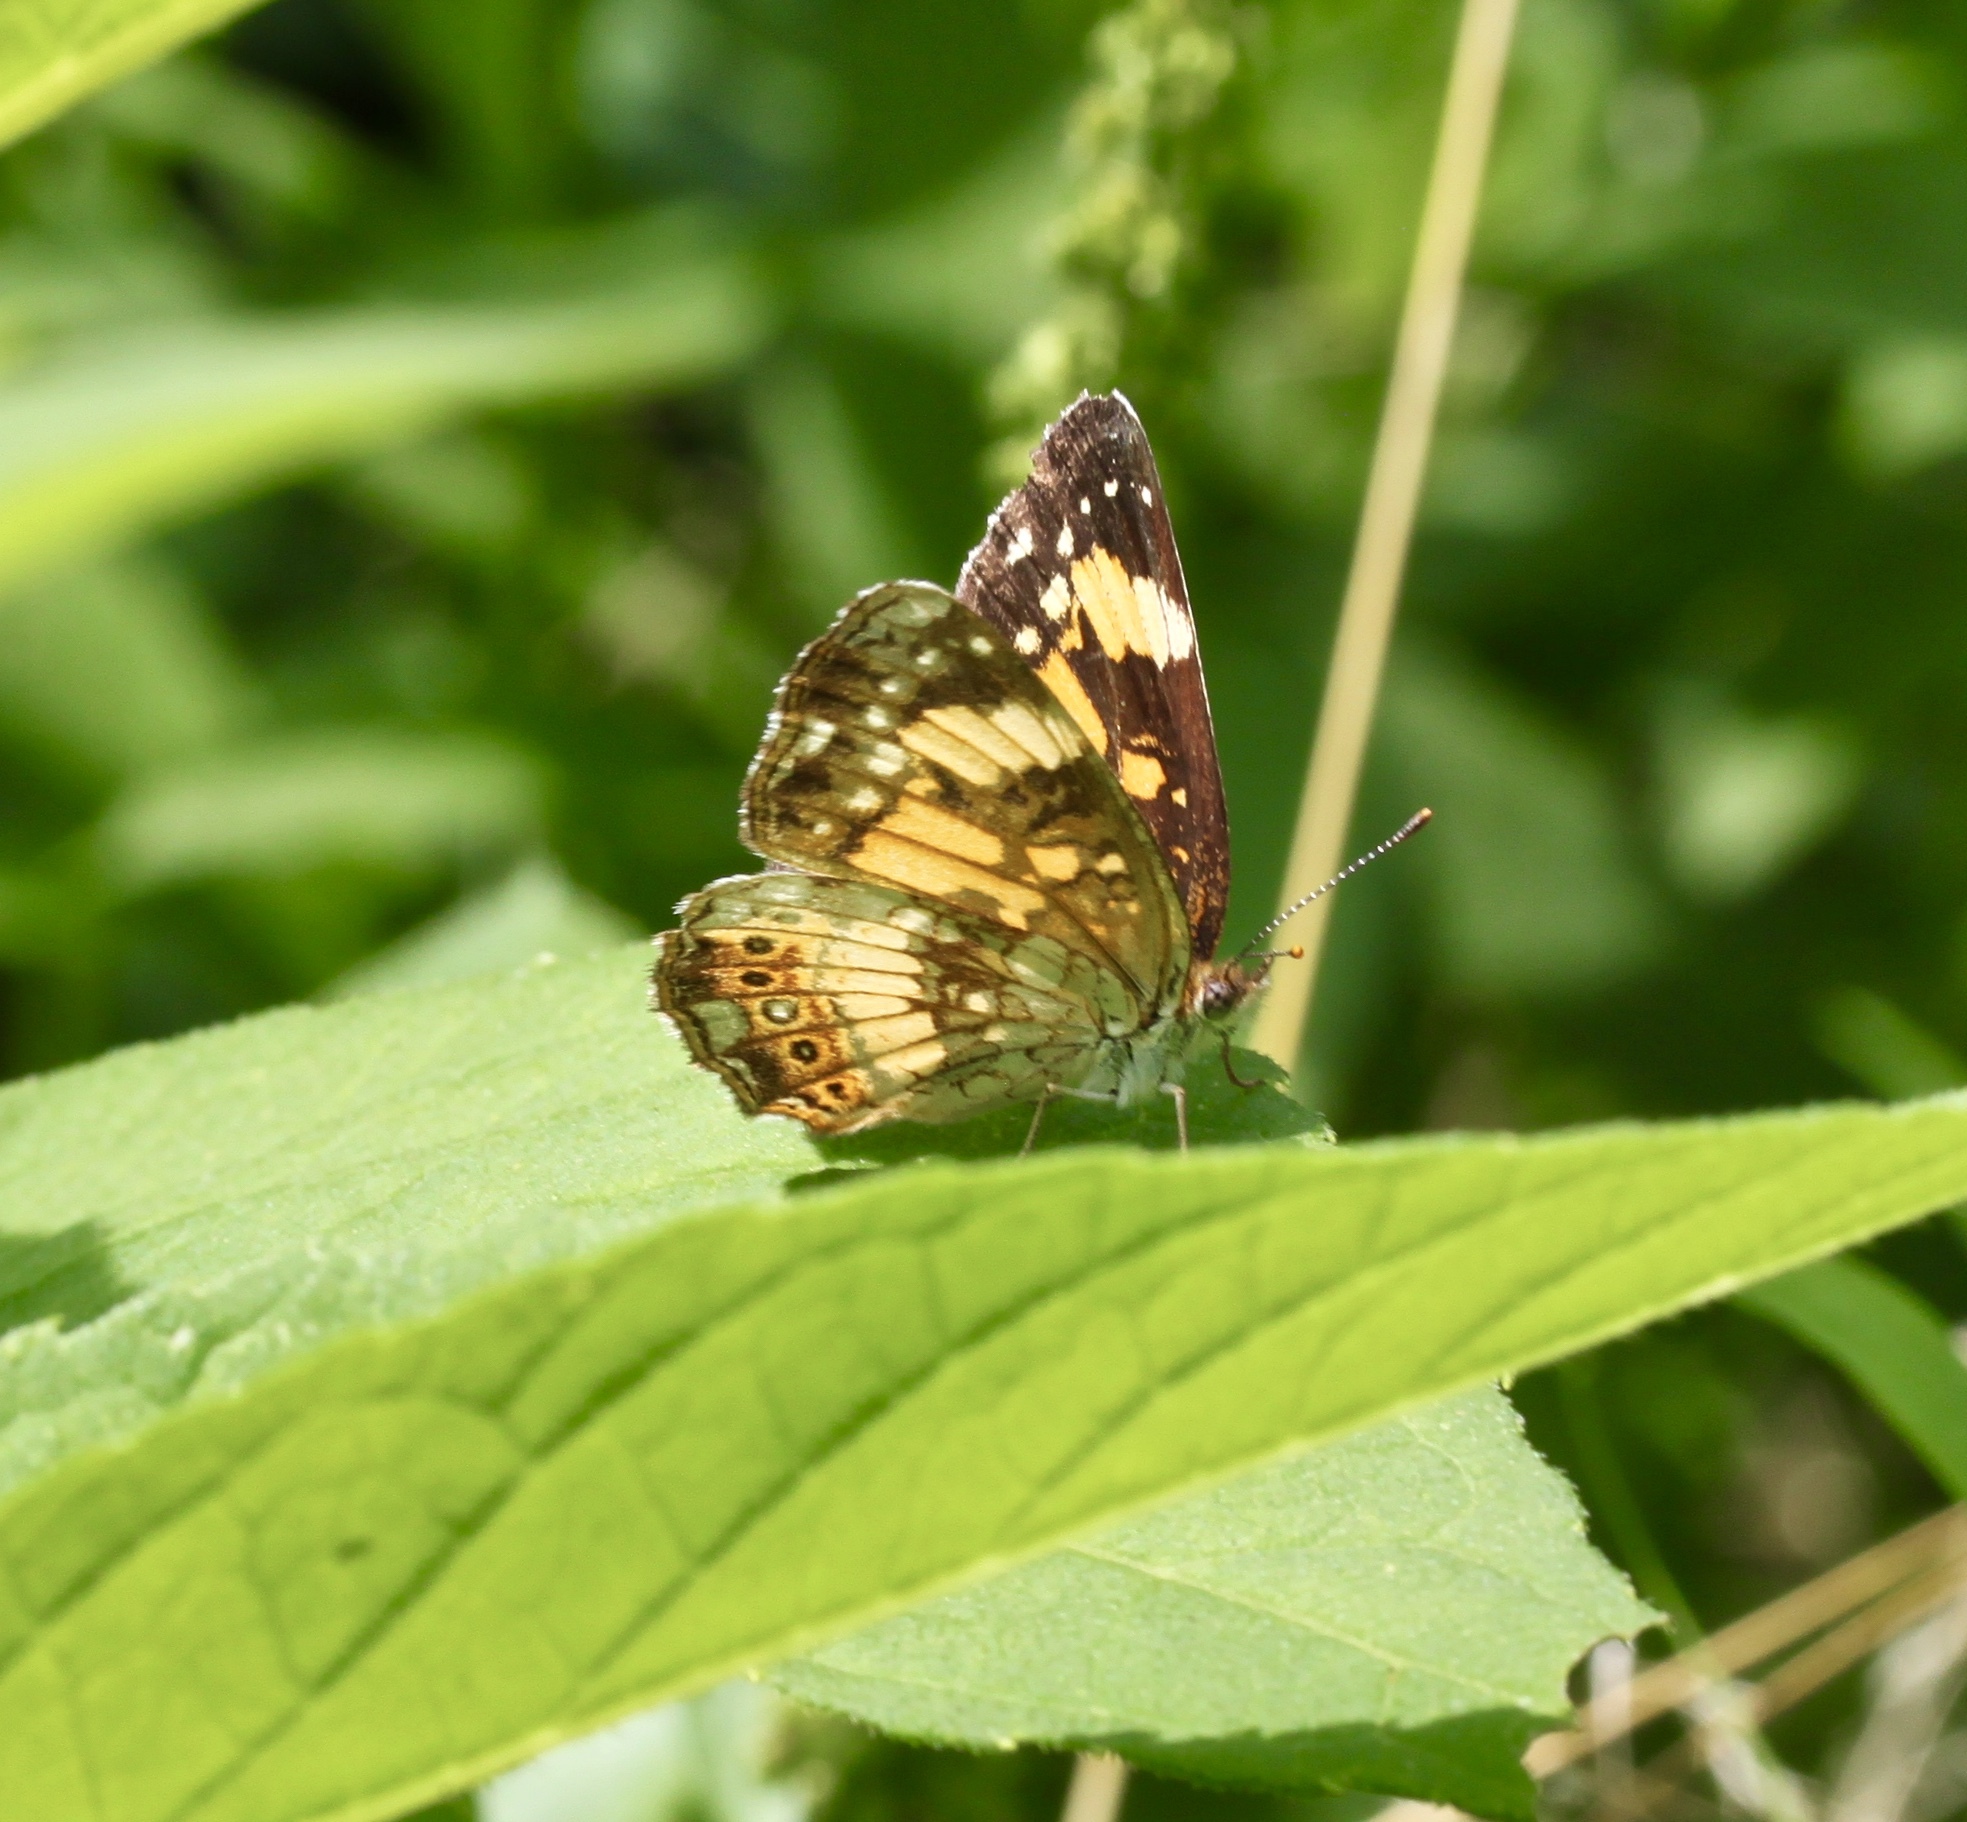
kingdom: Animalia
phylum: Arthropoda
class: Insecta
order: Lepidoptera
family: Nymphalidae
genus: Chlosyne
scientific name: Chlosyne nycteis
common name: Silvery checkerspot
